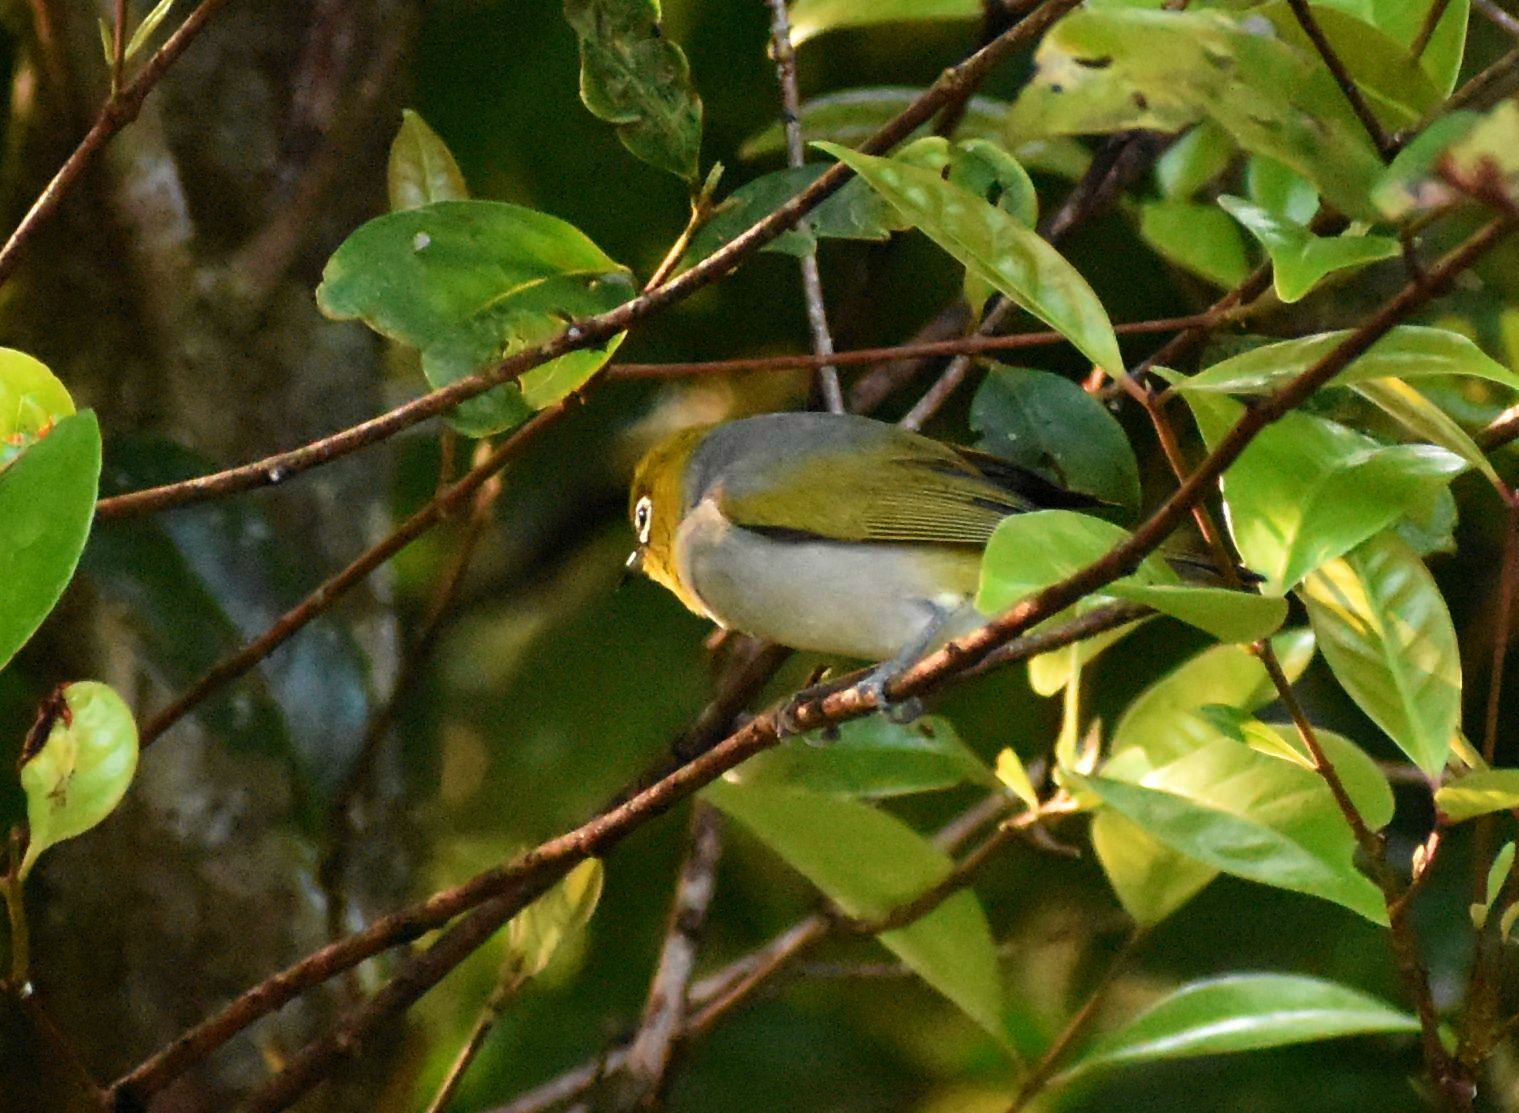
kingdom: Animalia
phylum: Chordata
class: Aves
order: Passeriformes
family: Zosteropidae
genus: Zosterops
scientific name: Zosterops lateralis
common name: Silvereye
